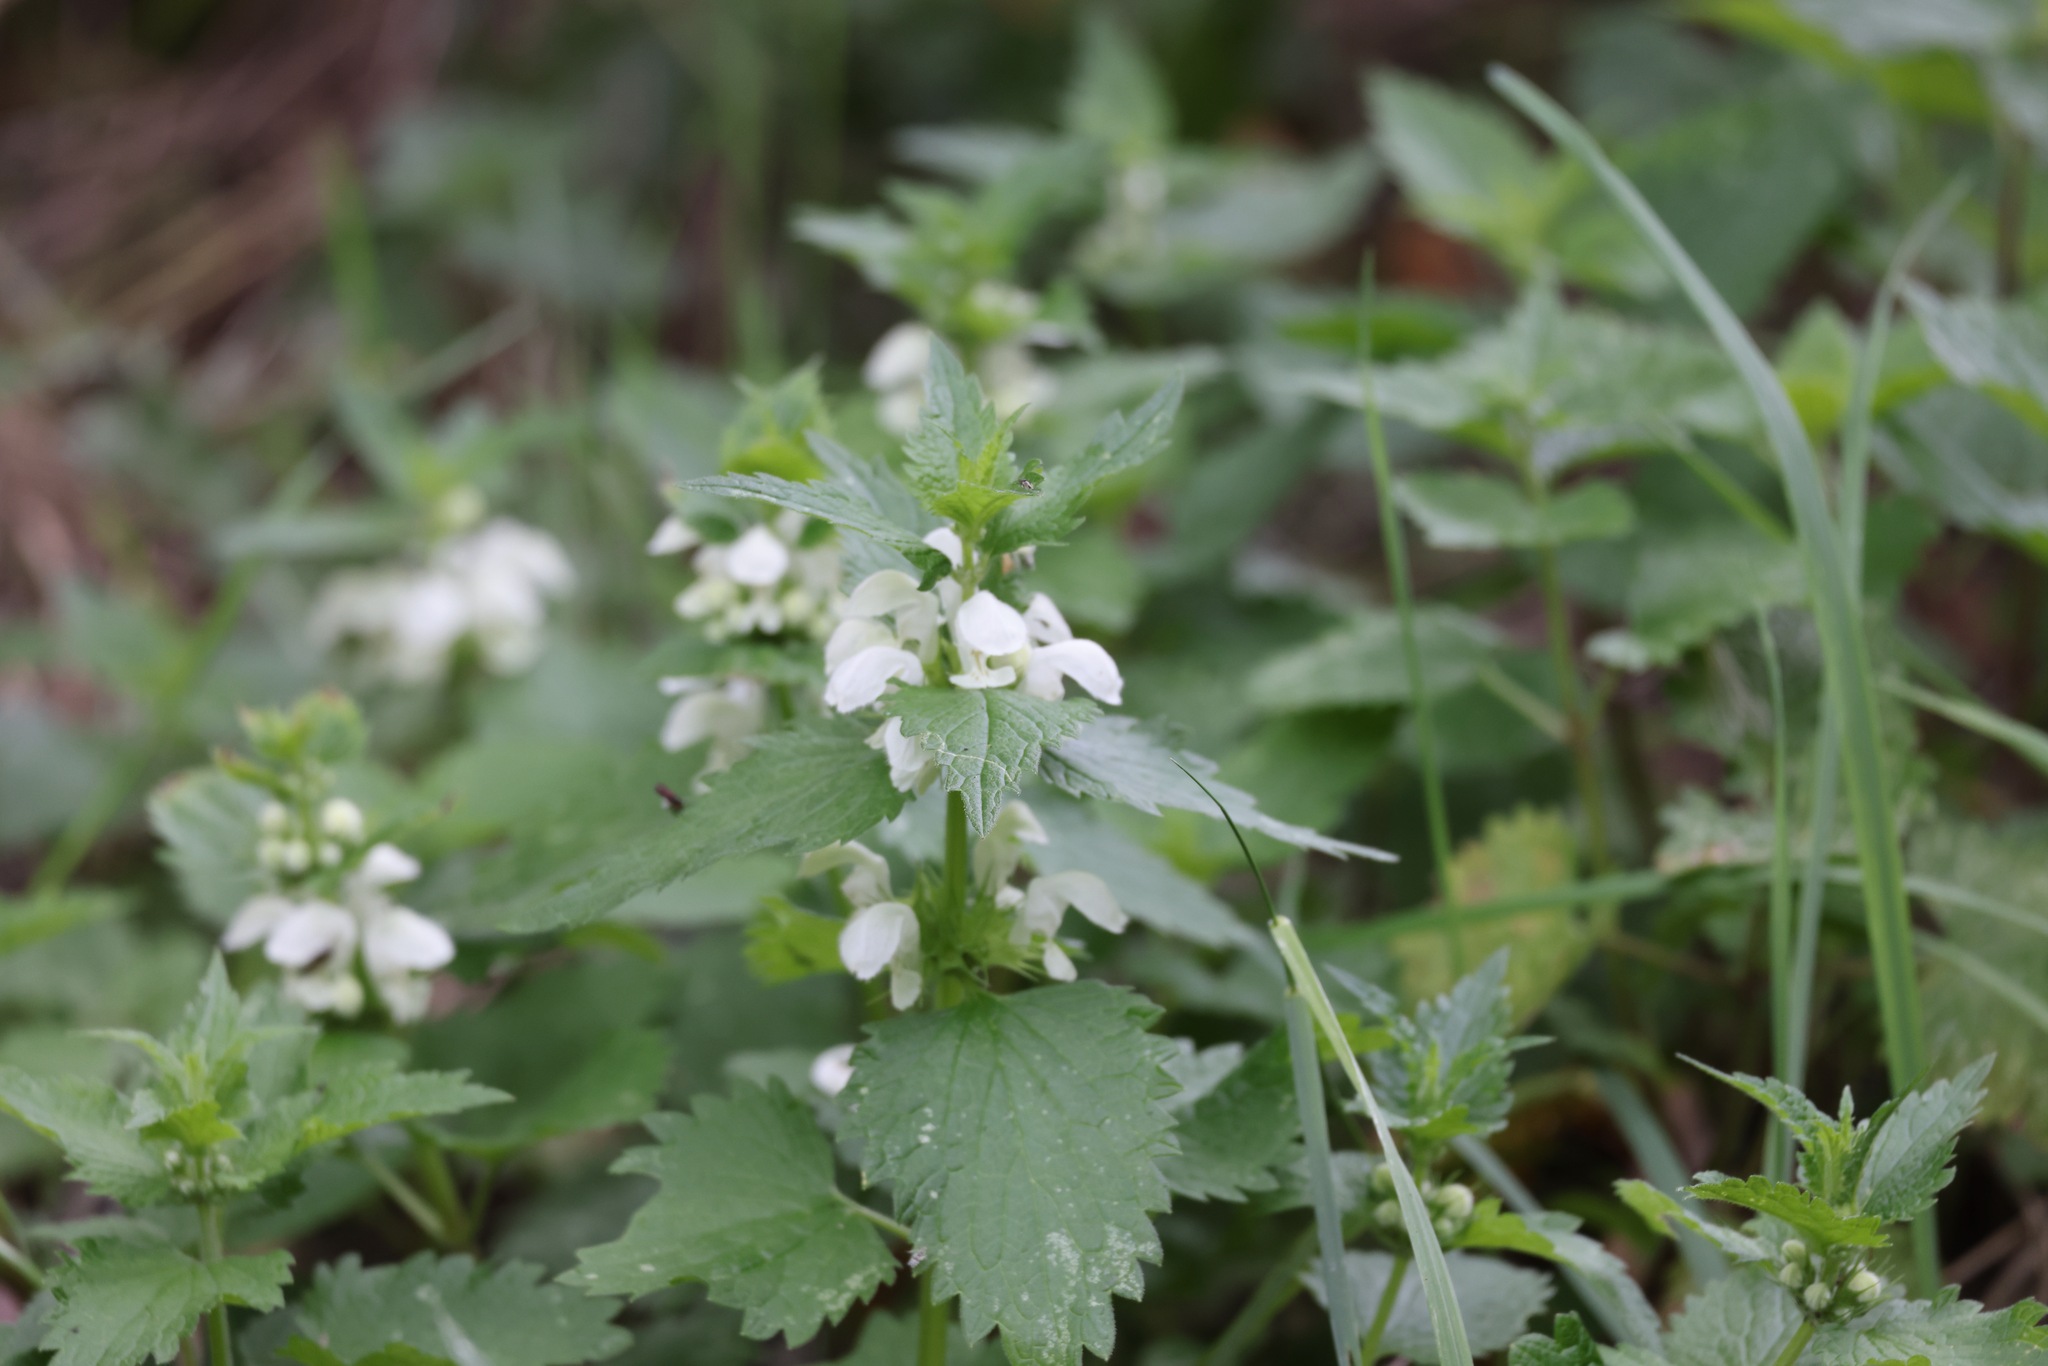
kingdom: Plantae
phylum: Tracheophyta
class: Magnoliopsida
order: Lamiales
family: Lamiaceae
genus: Lamium
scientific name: Lamium album
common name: White dead-nettle
